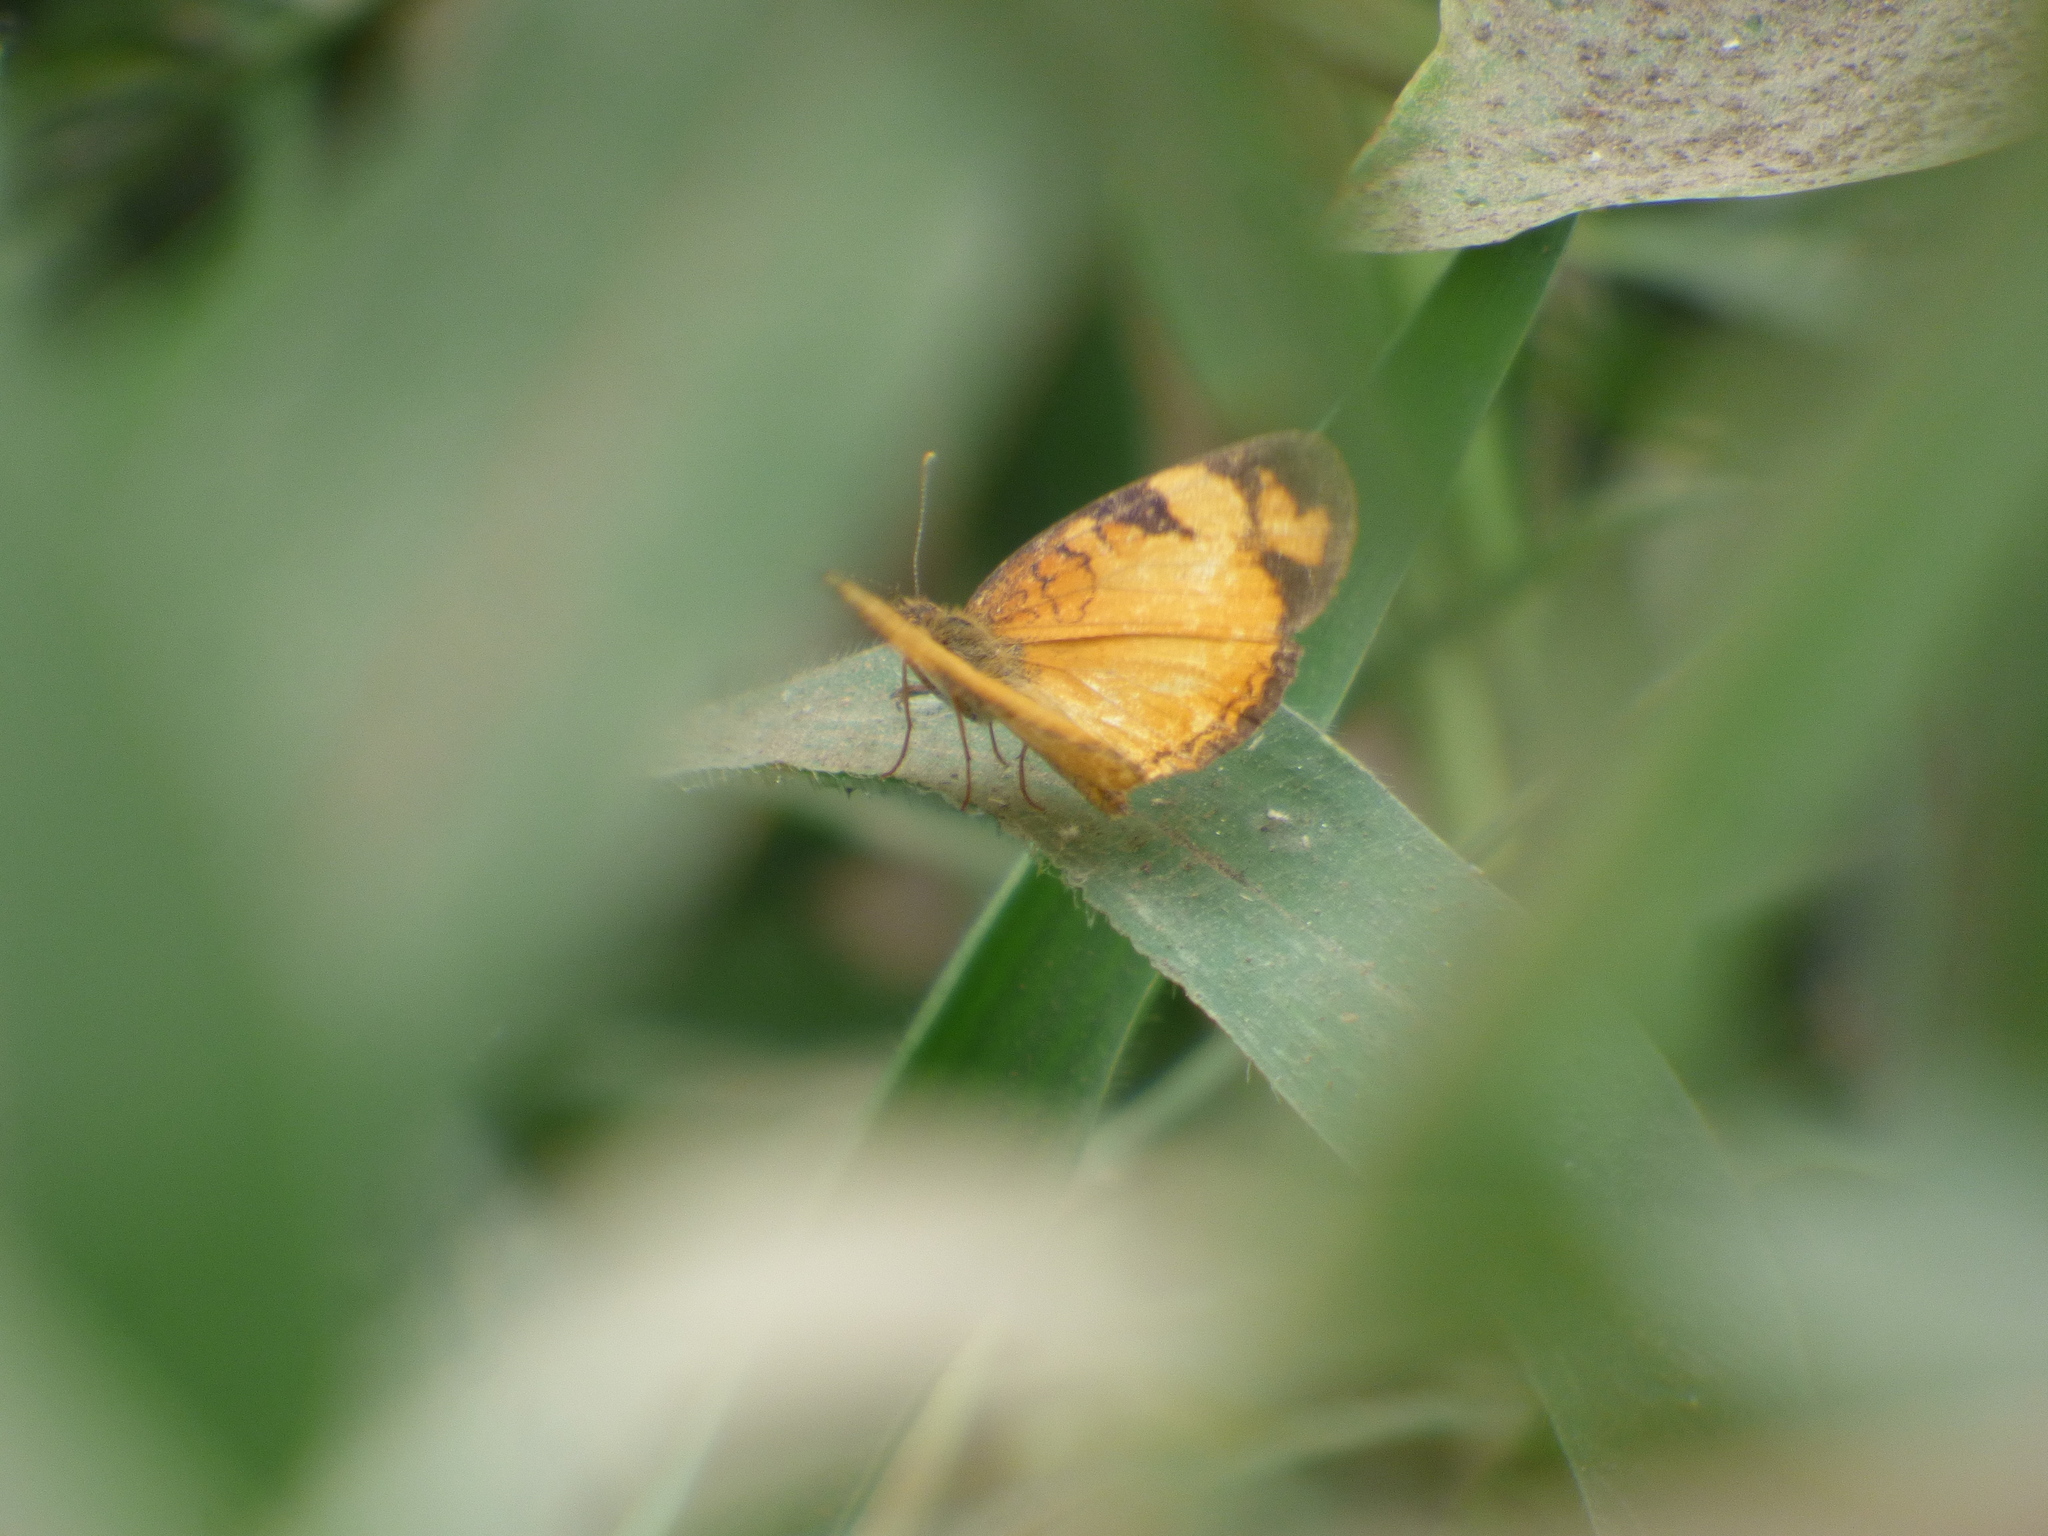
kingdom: Animalia
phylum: Arthropoda
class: Insecta
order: Lepidoptera
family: Nymphalidae
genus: Tegosa
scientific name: Tegosa claudina
